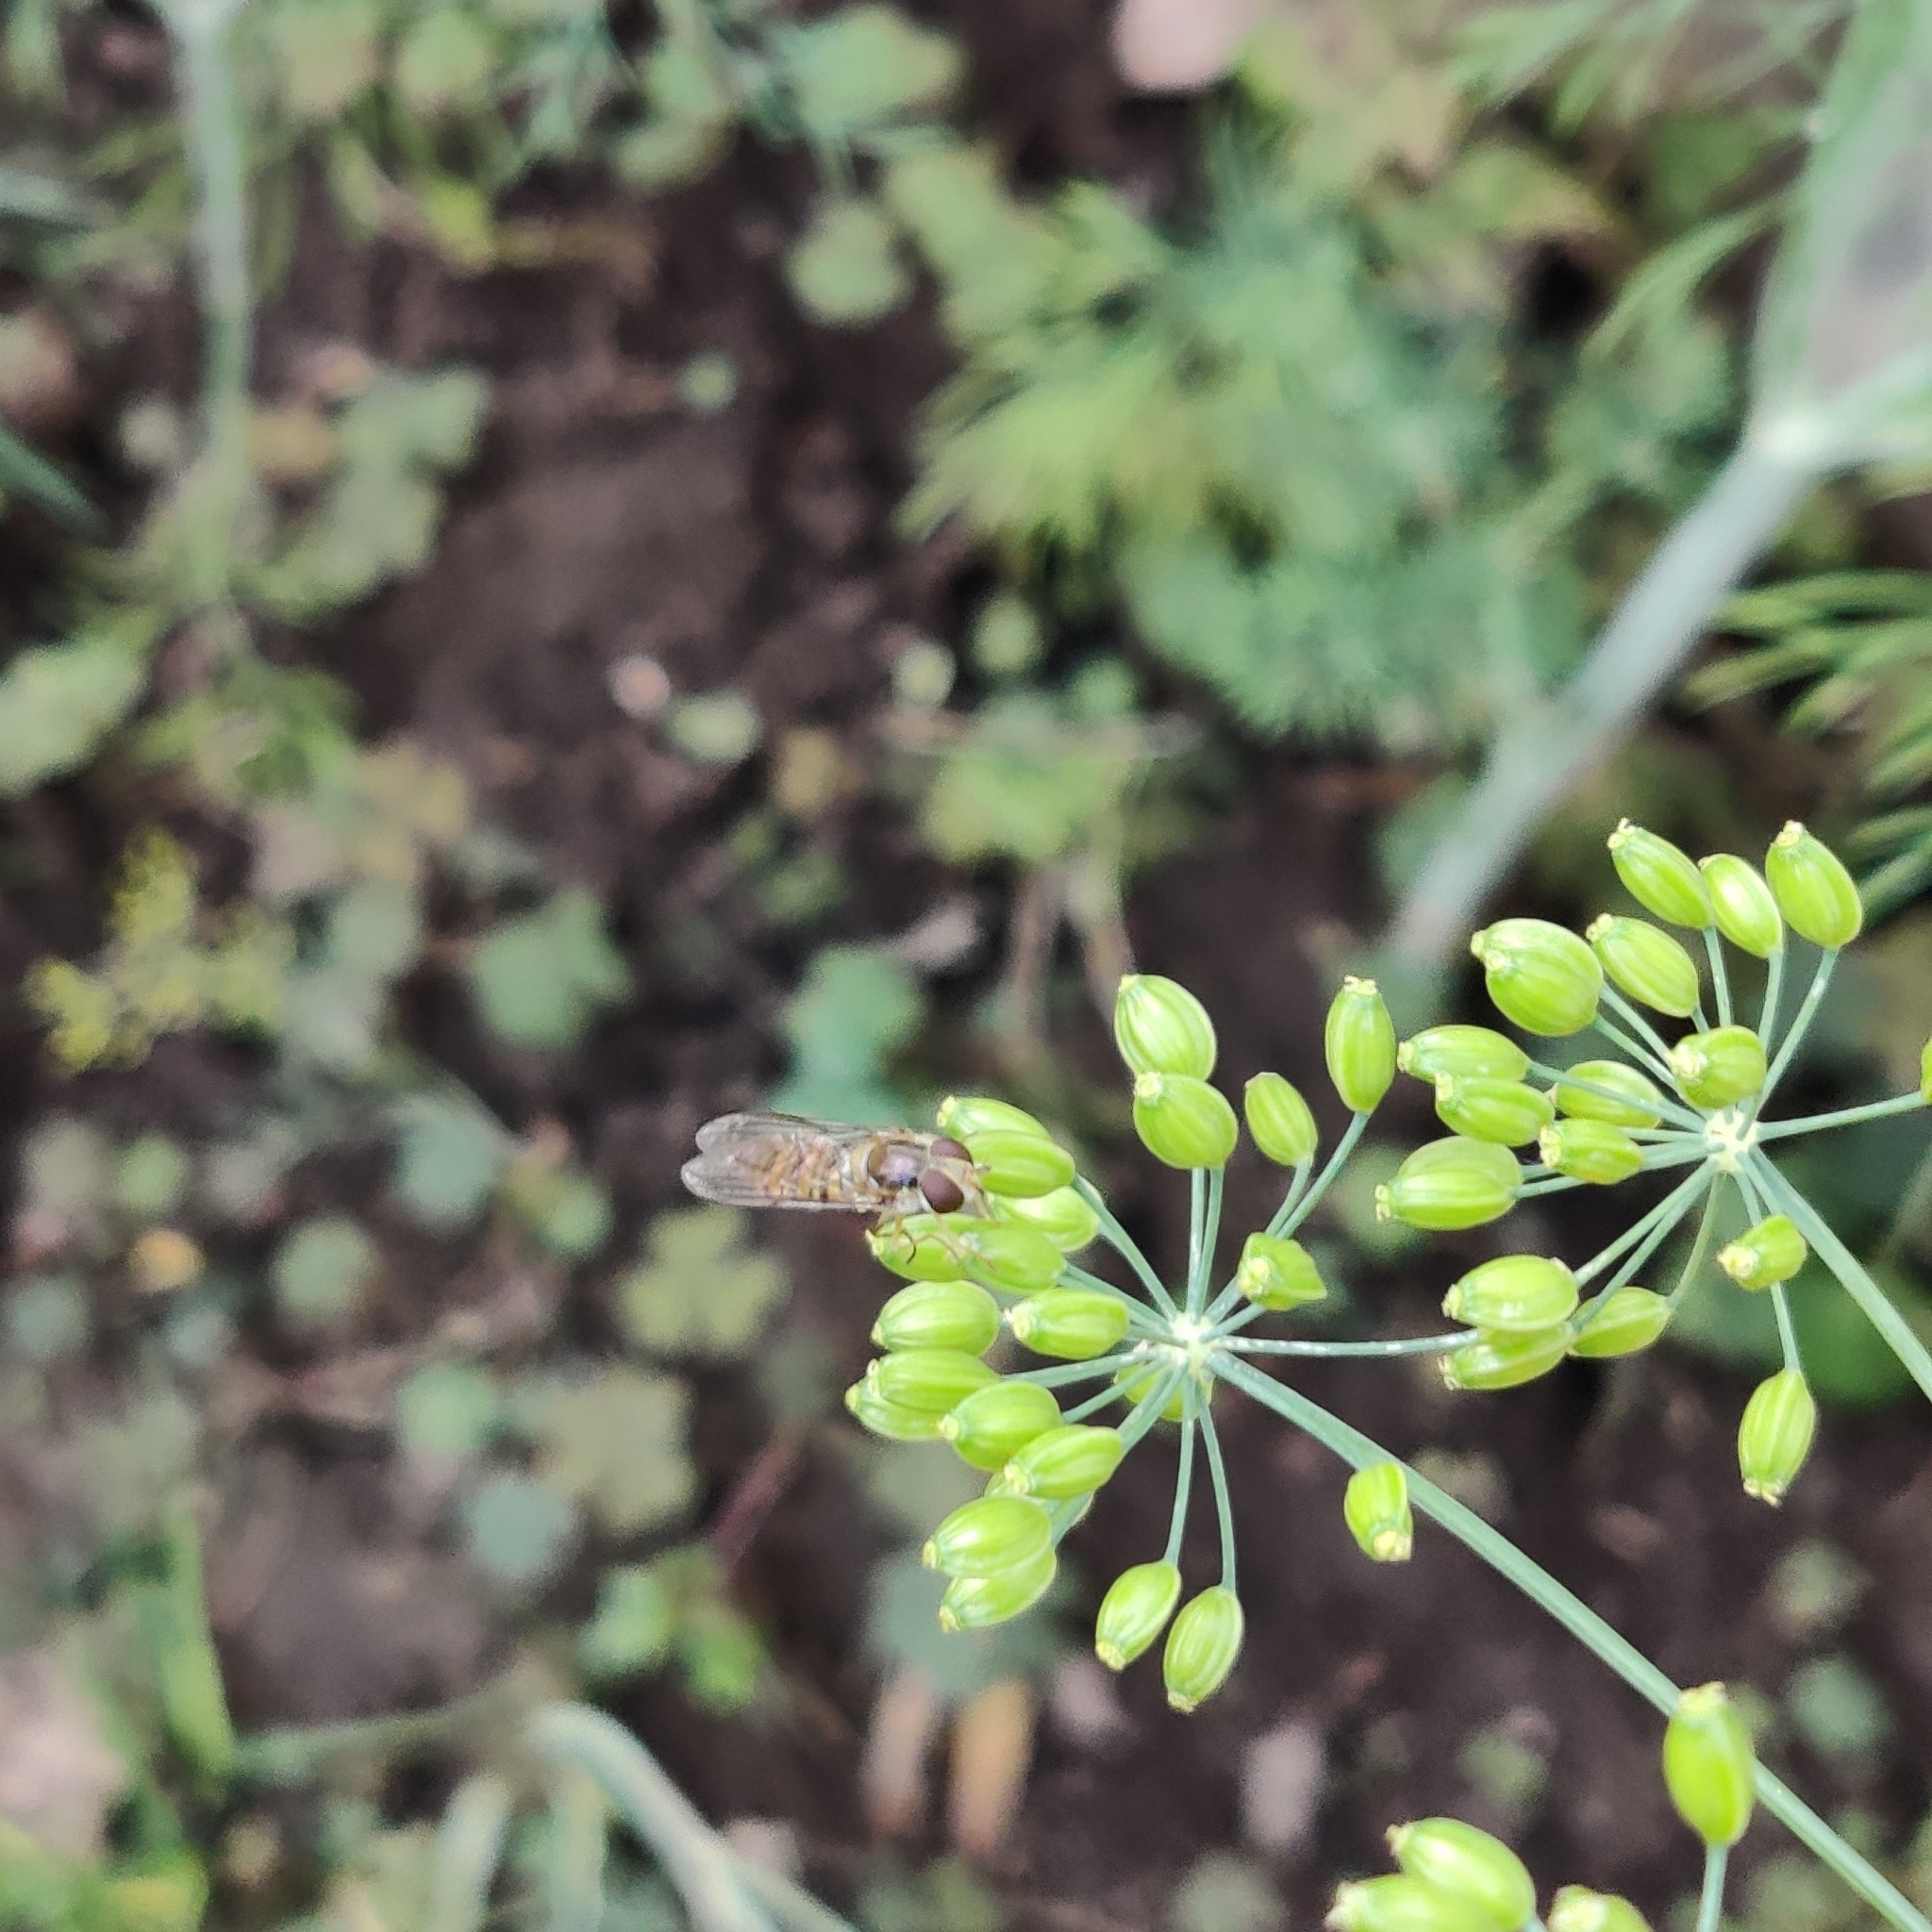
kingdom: Animalia
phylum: Arthropoda
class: Insecta
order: Diptera
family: Syrphidae
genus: Episyrphus
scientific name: Episyrphus balteatus
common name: Marmalade hoverfly
